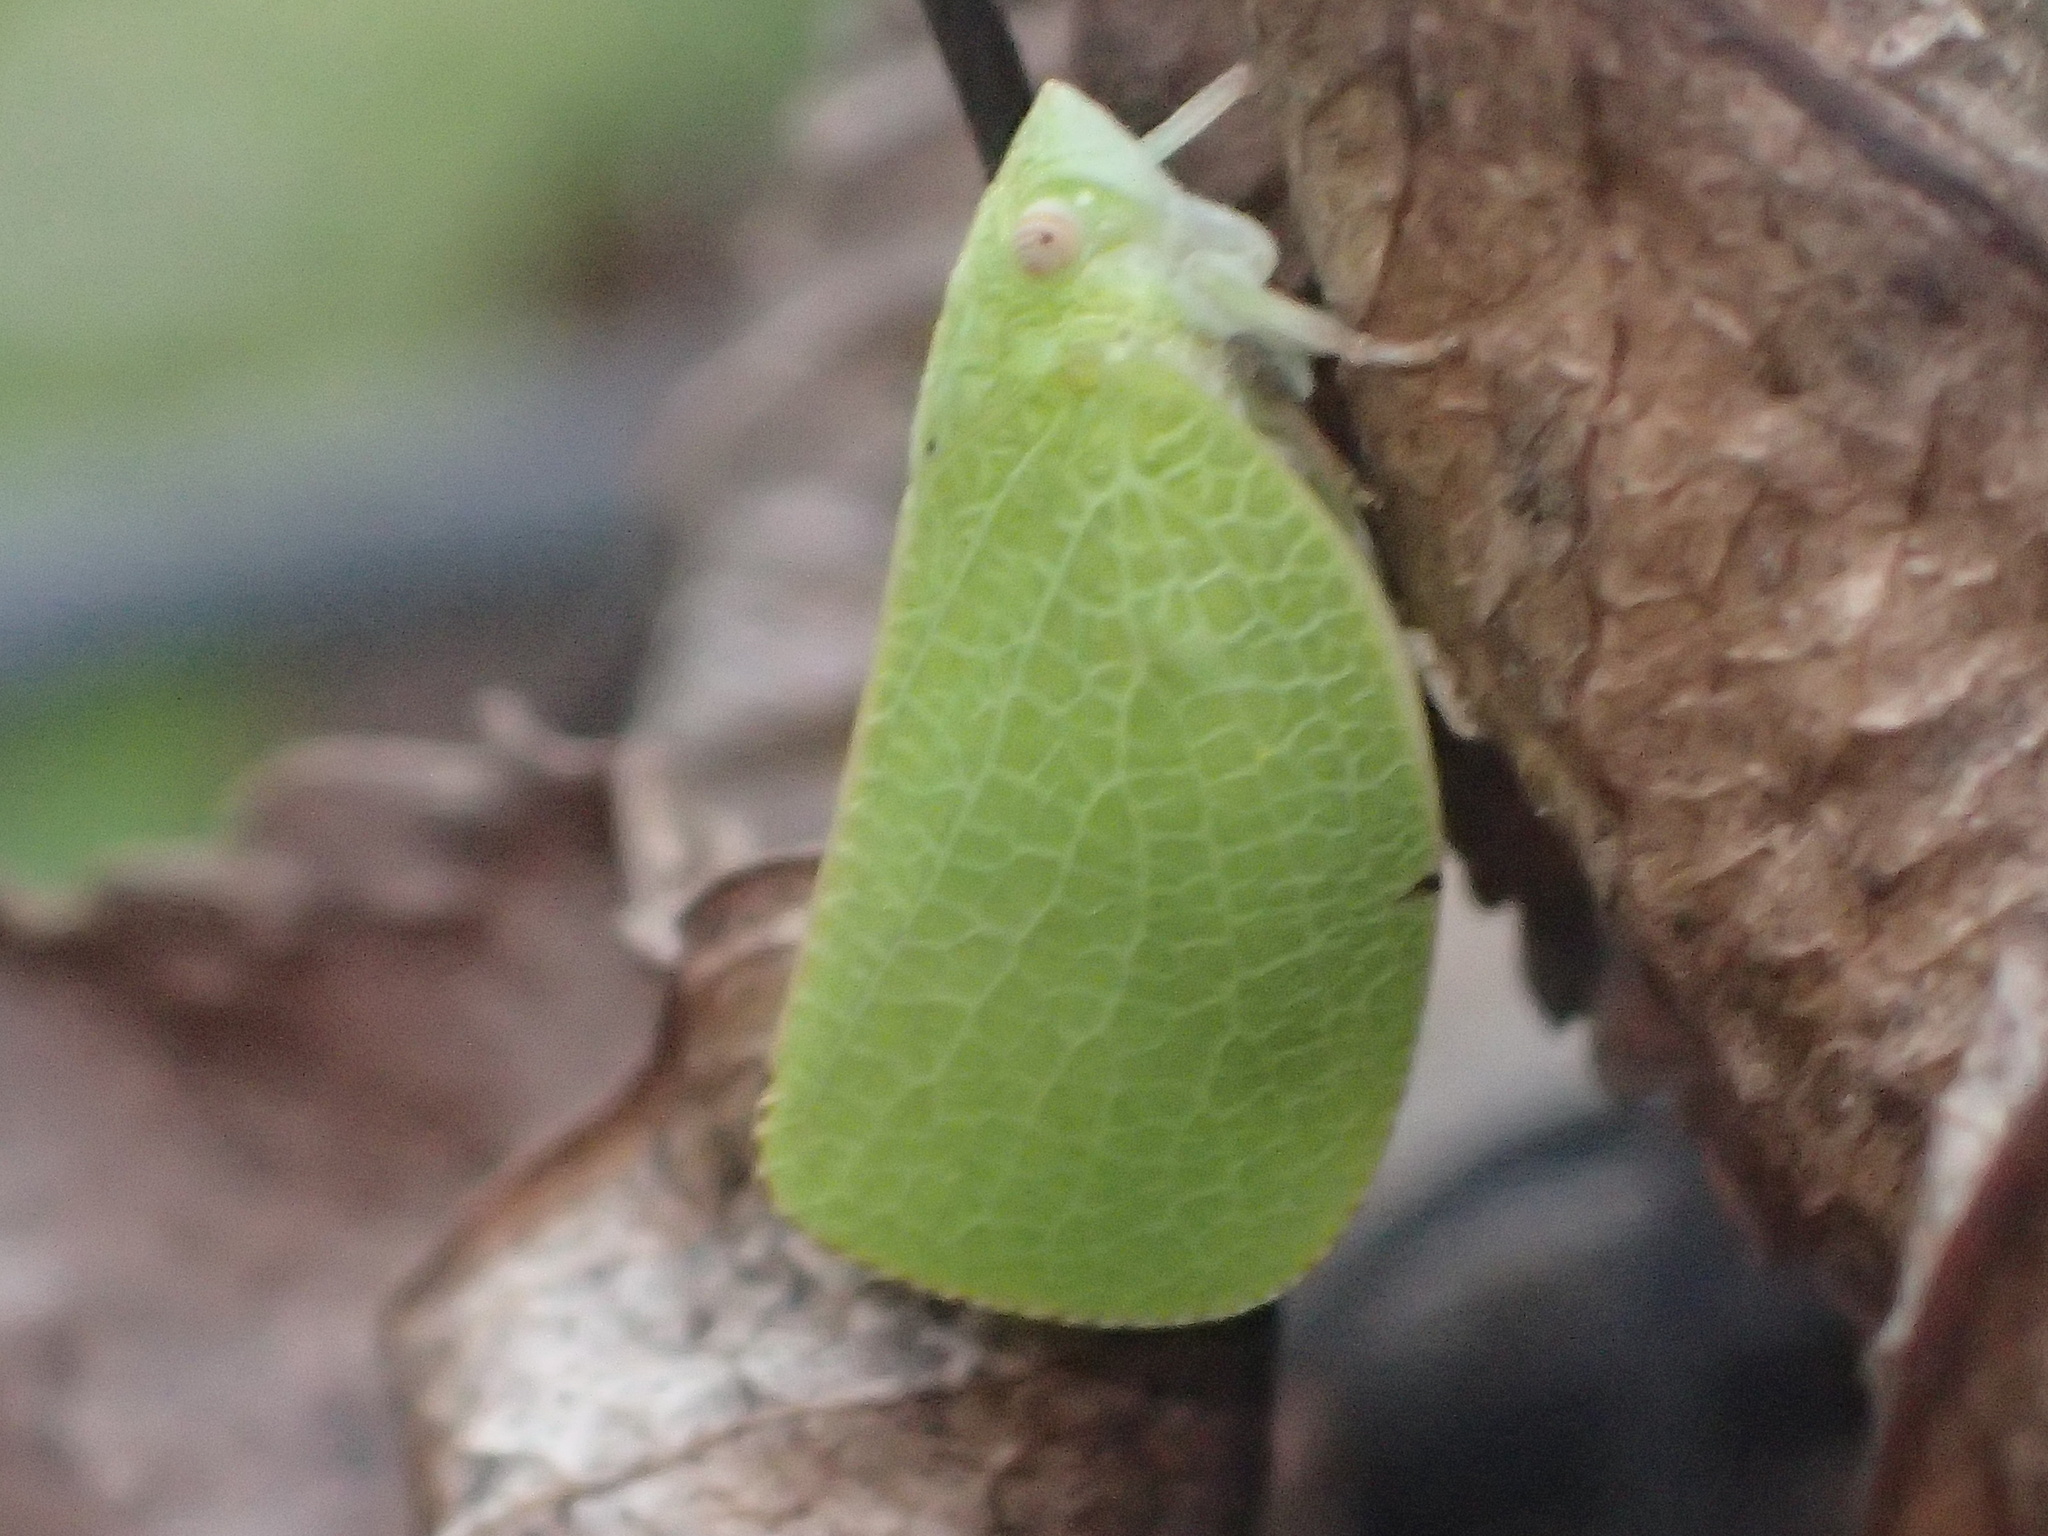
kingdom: Animalia
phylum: Arthropoda
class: Insecta
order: Hemiptera
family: Acanaloniidae
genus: Acanalonia
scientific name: Acanalonia conica
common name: Green cone-headed planthopper
